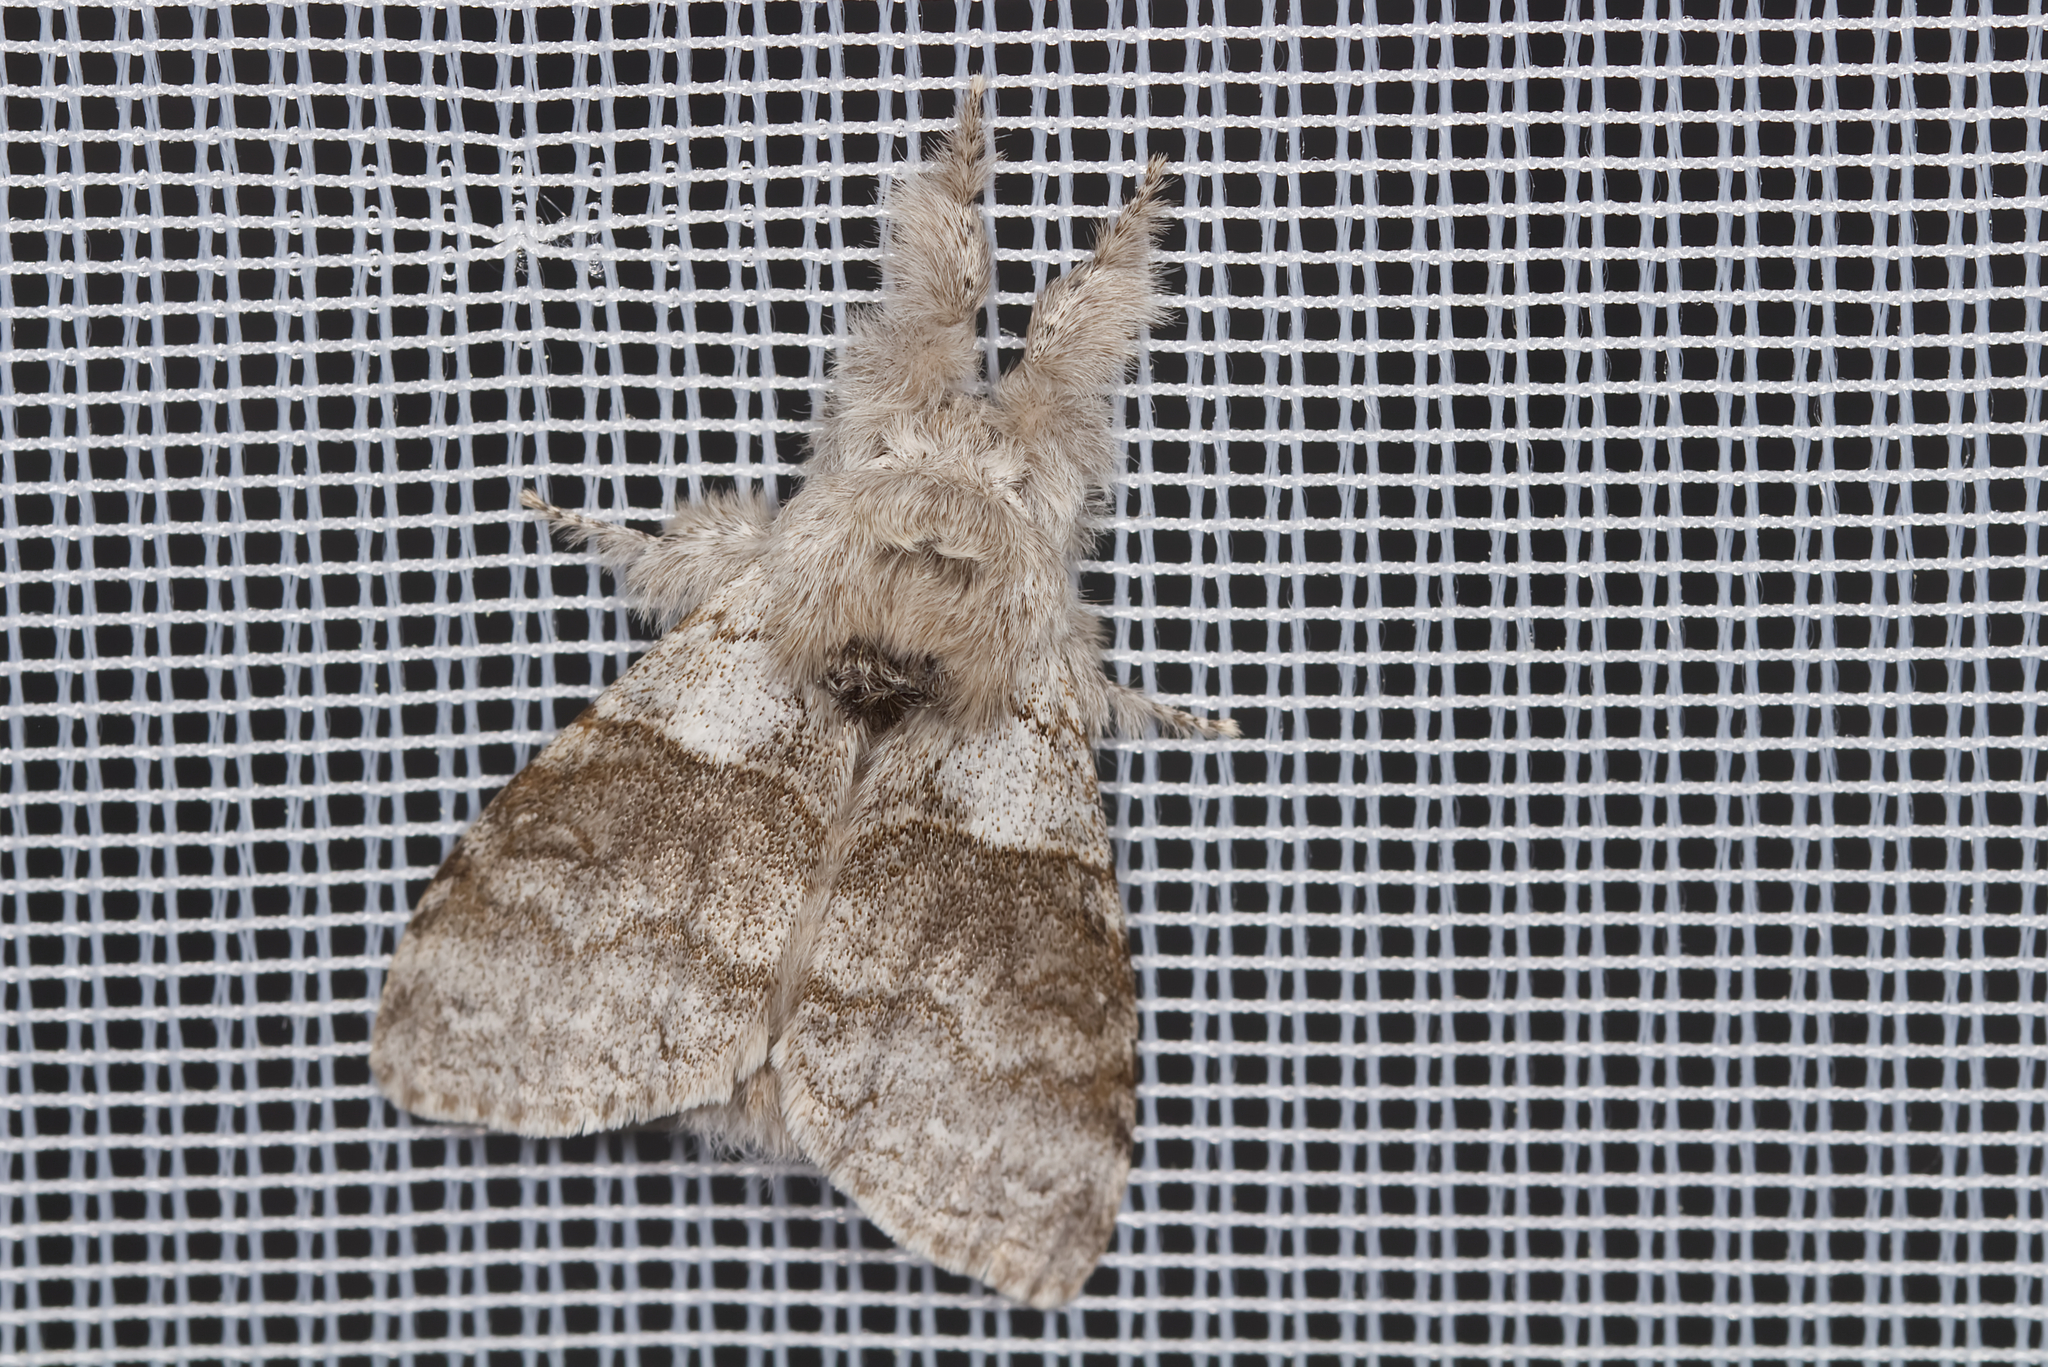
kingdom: Animalia
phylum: Arthropoda
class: Insecta
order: Lepidoptera
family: Erebidae
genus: Calliteara
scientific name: Calliteara pudibunda
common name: Pale tussock
